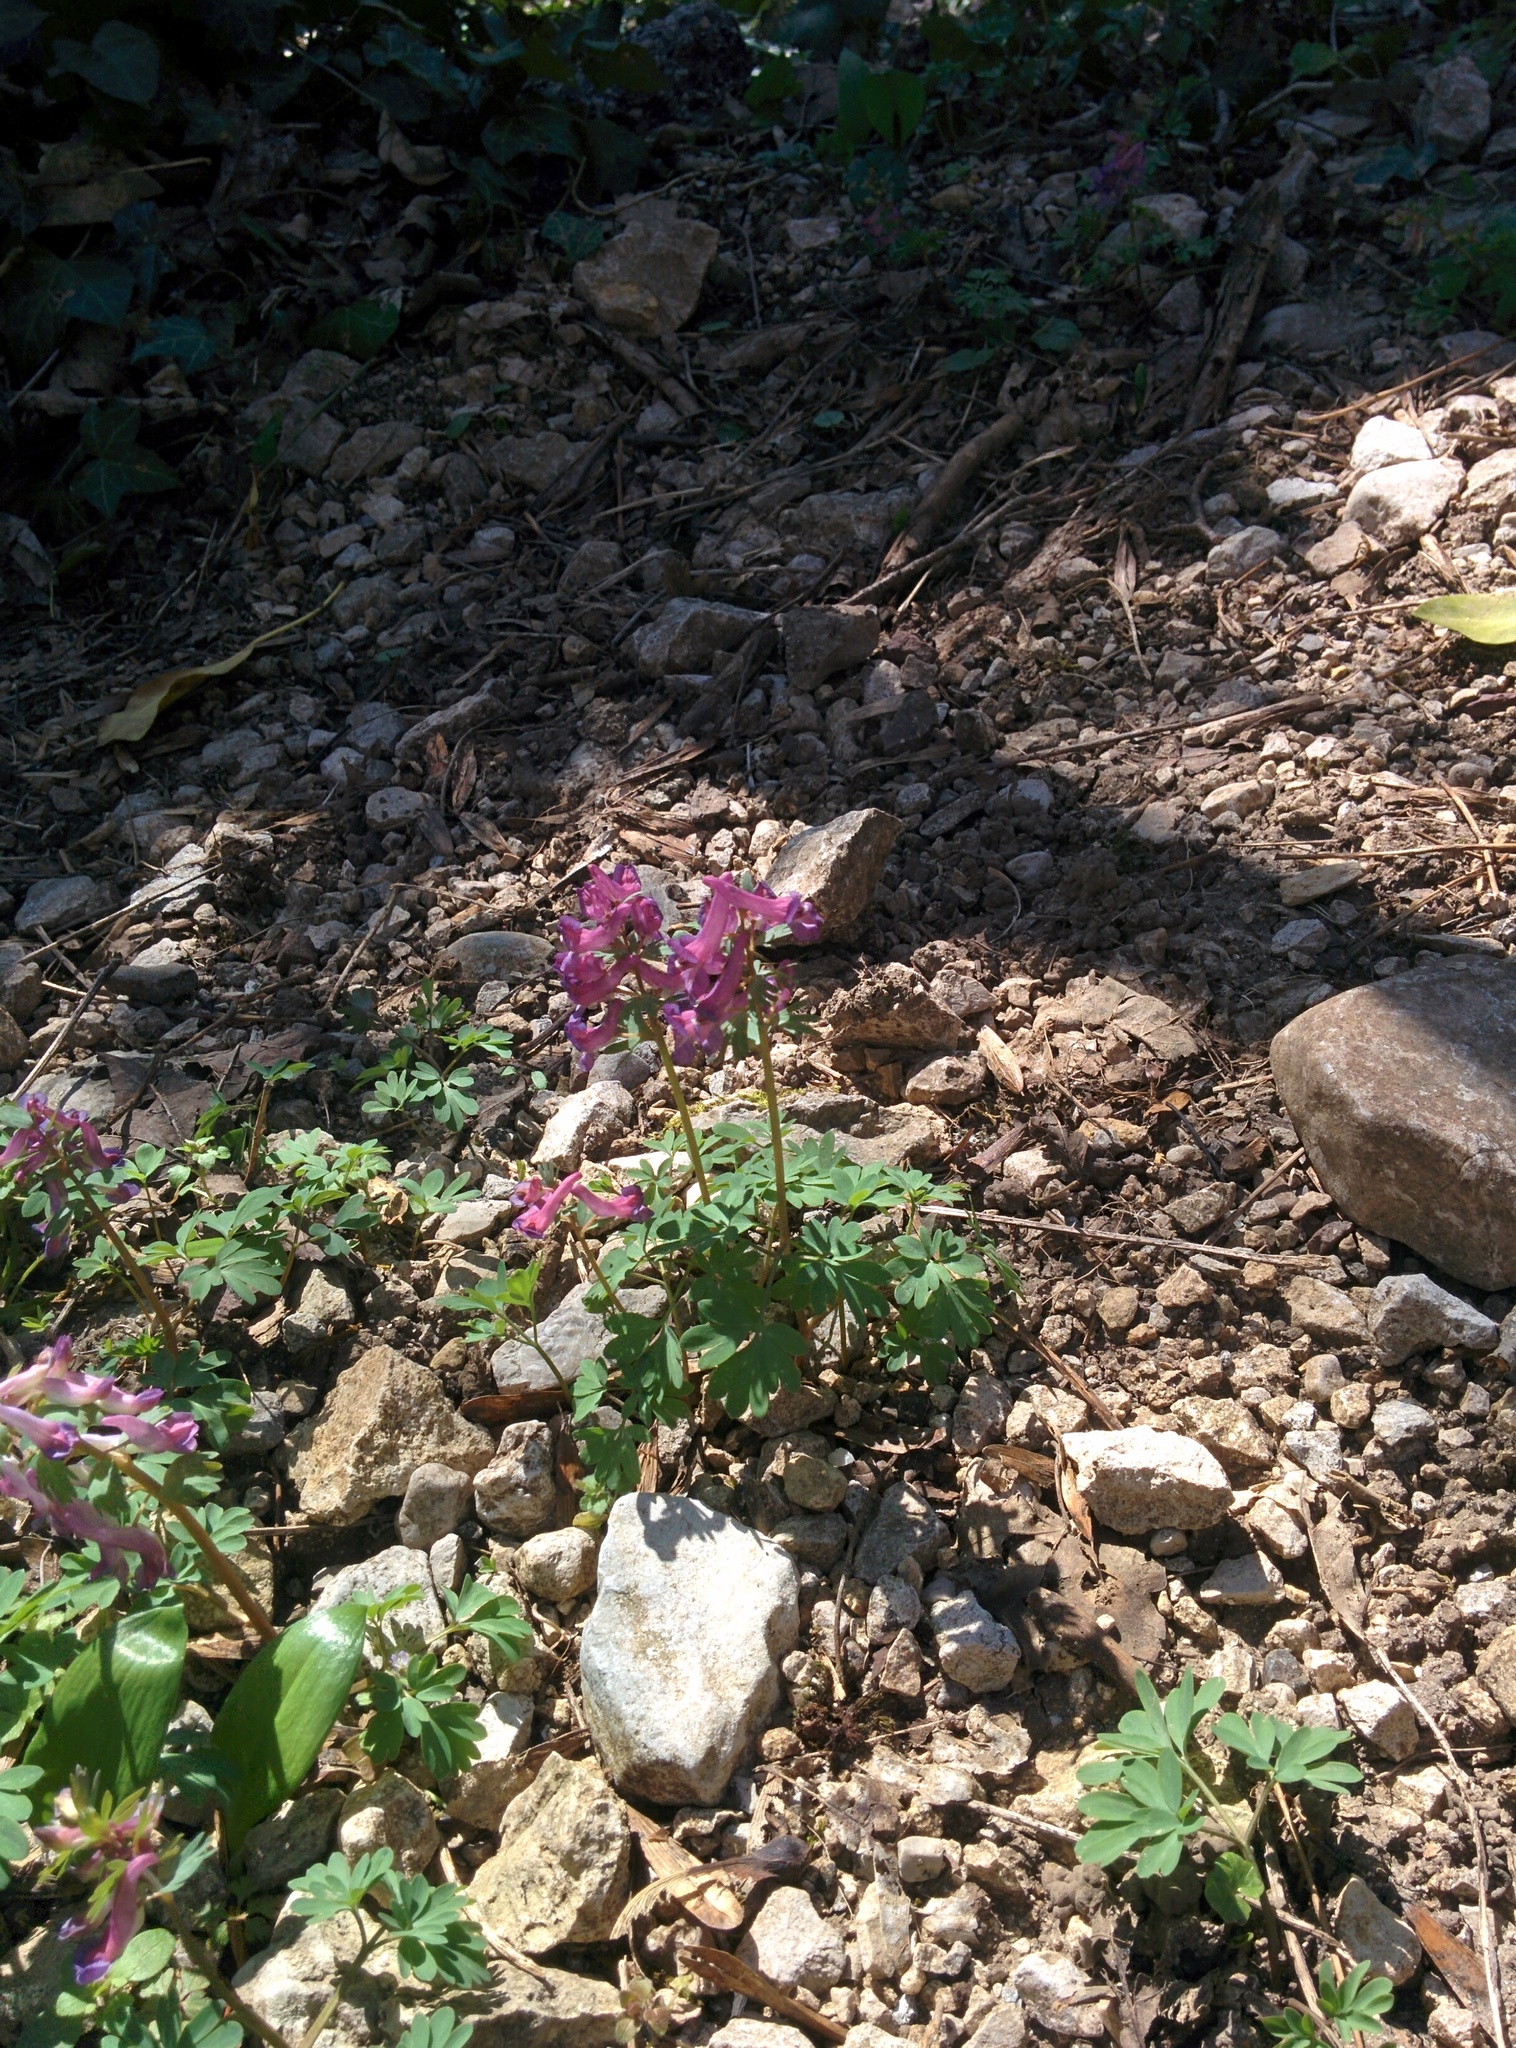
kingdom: Plantae
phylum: Tracheophyta
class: Magnoliopsida
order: Ranunculales
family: Papaveraceae
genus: Corydalis
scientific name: Corydalis solida
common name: Bird-in-a-bush
